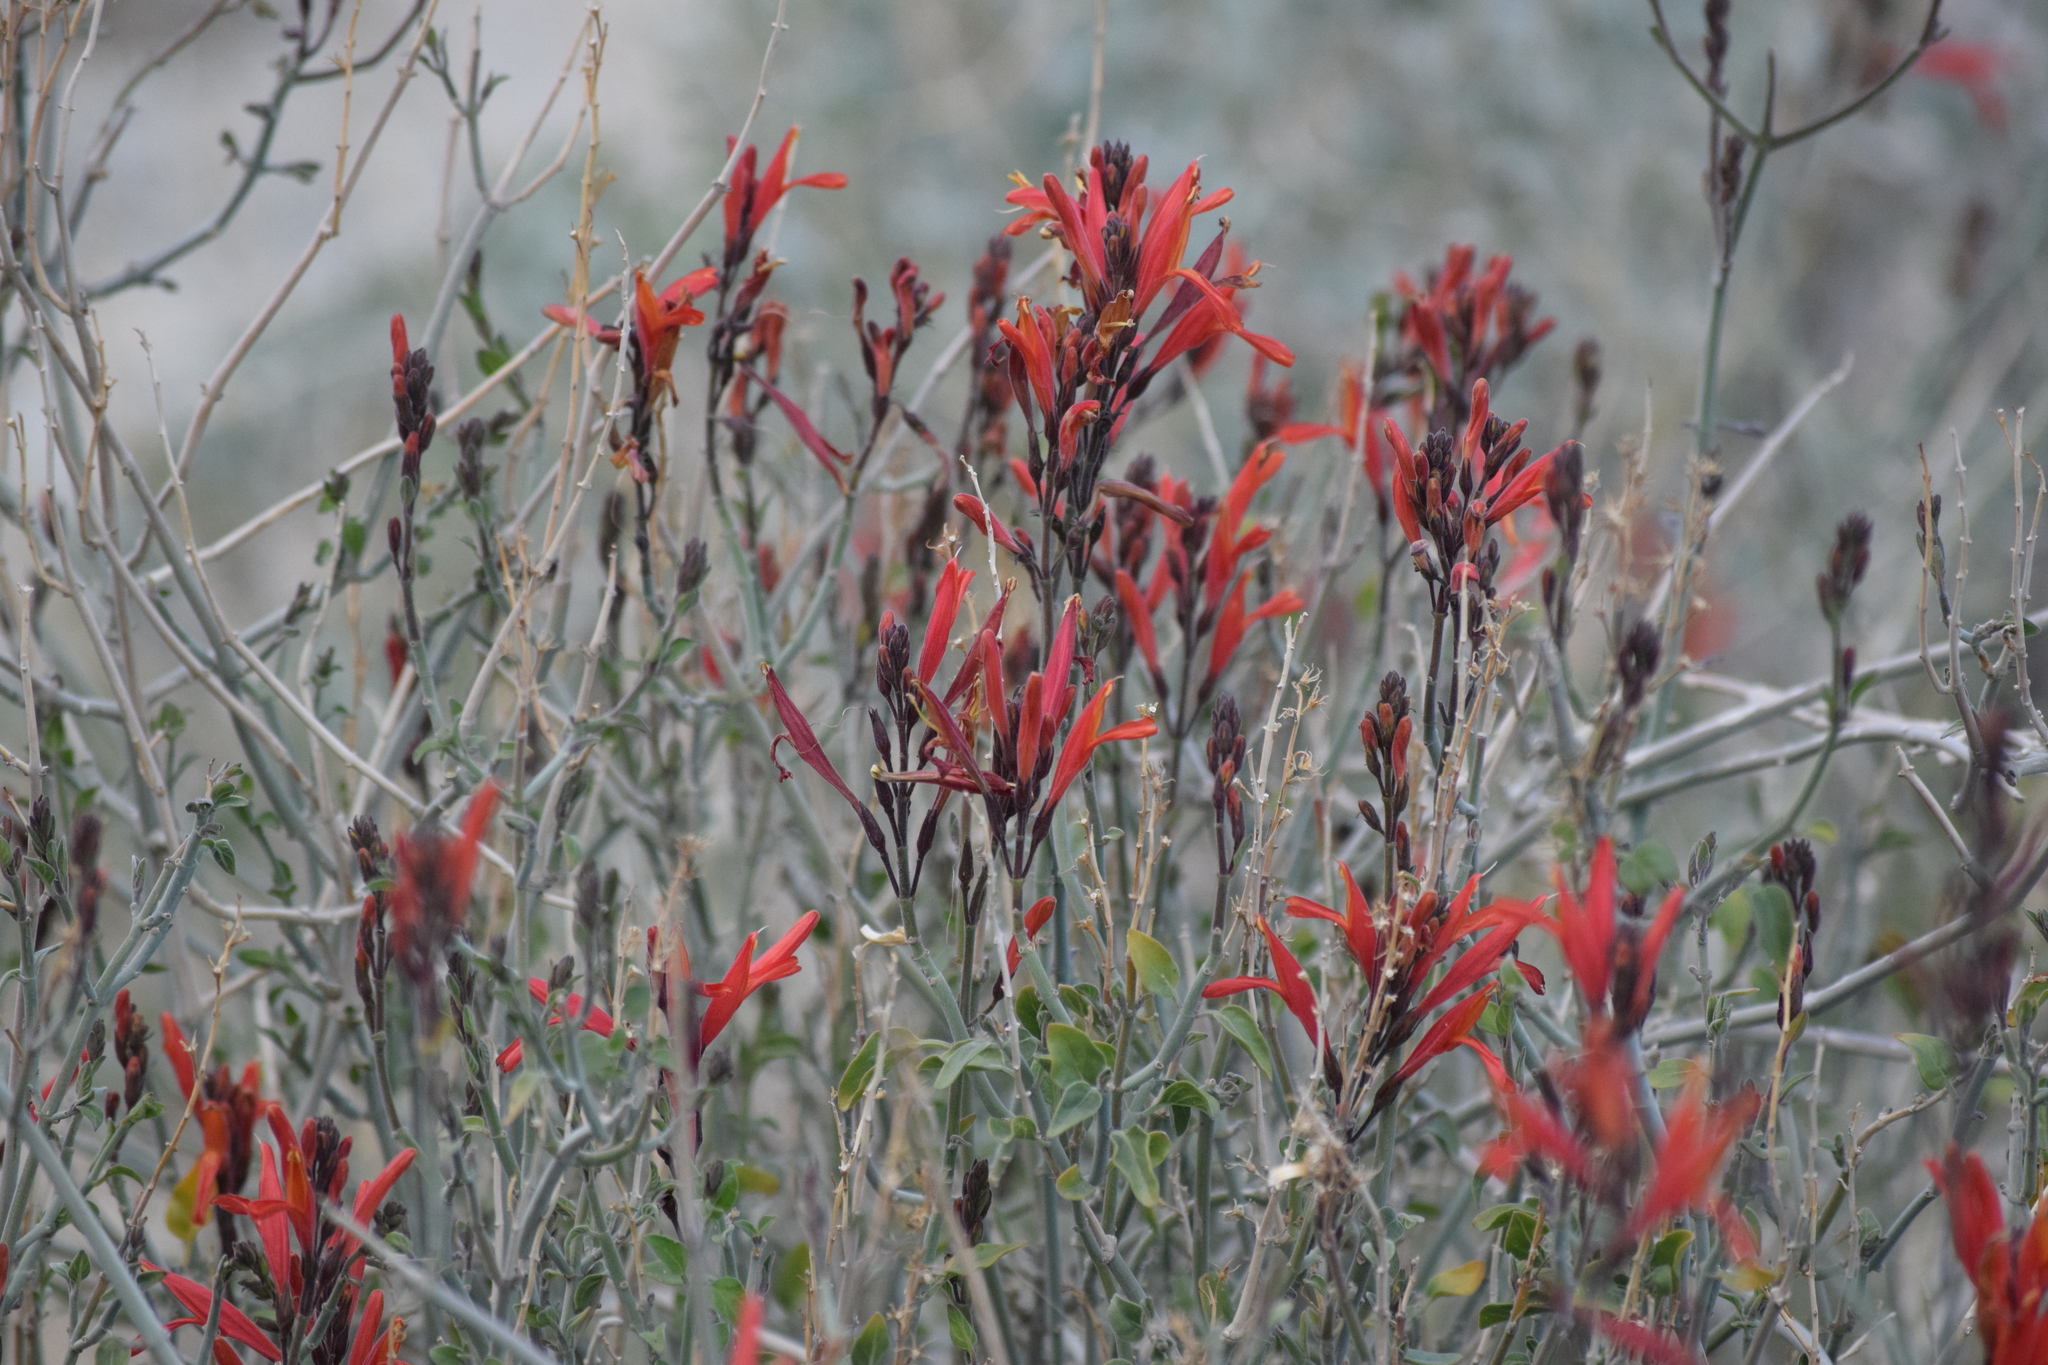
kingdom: Plantae
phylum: Tracheophyta
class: Magnoliopsida
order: Lamiales
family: Acanthaceae
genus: Justicia
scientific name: Justicia californica
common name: Chuparosa-honeysuckle
